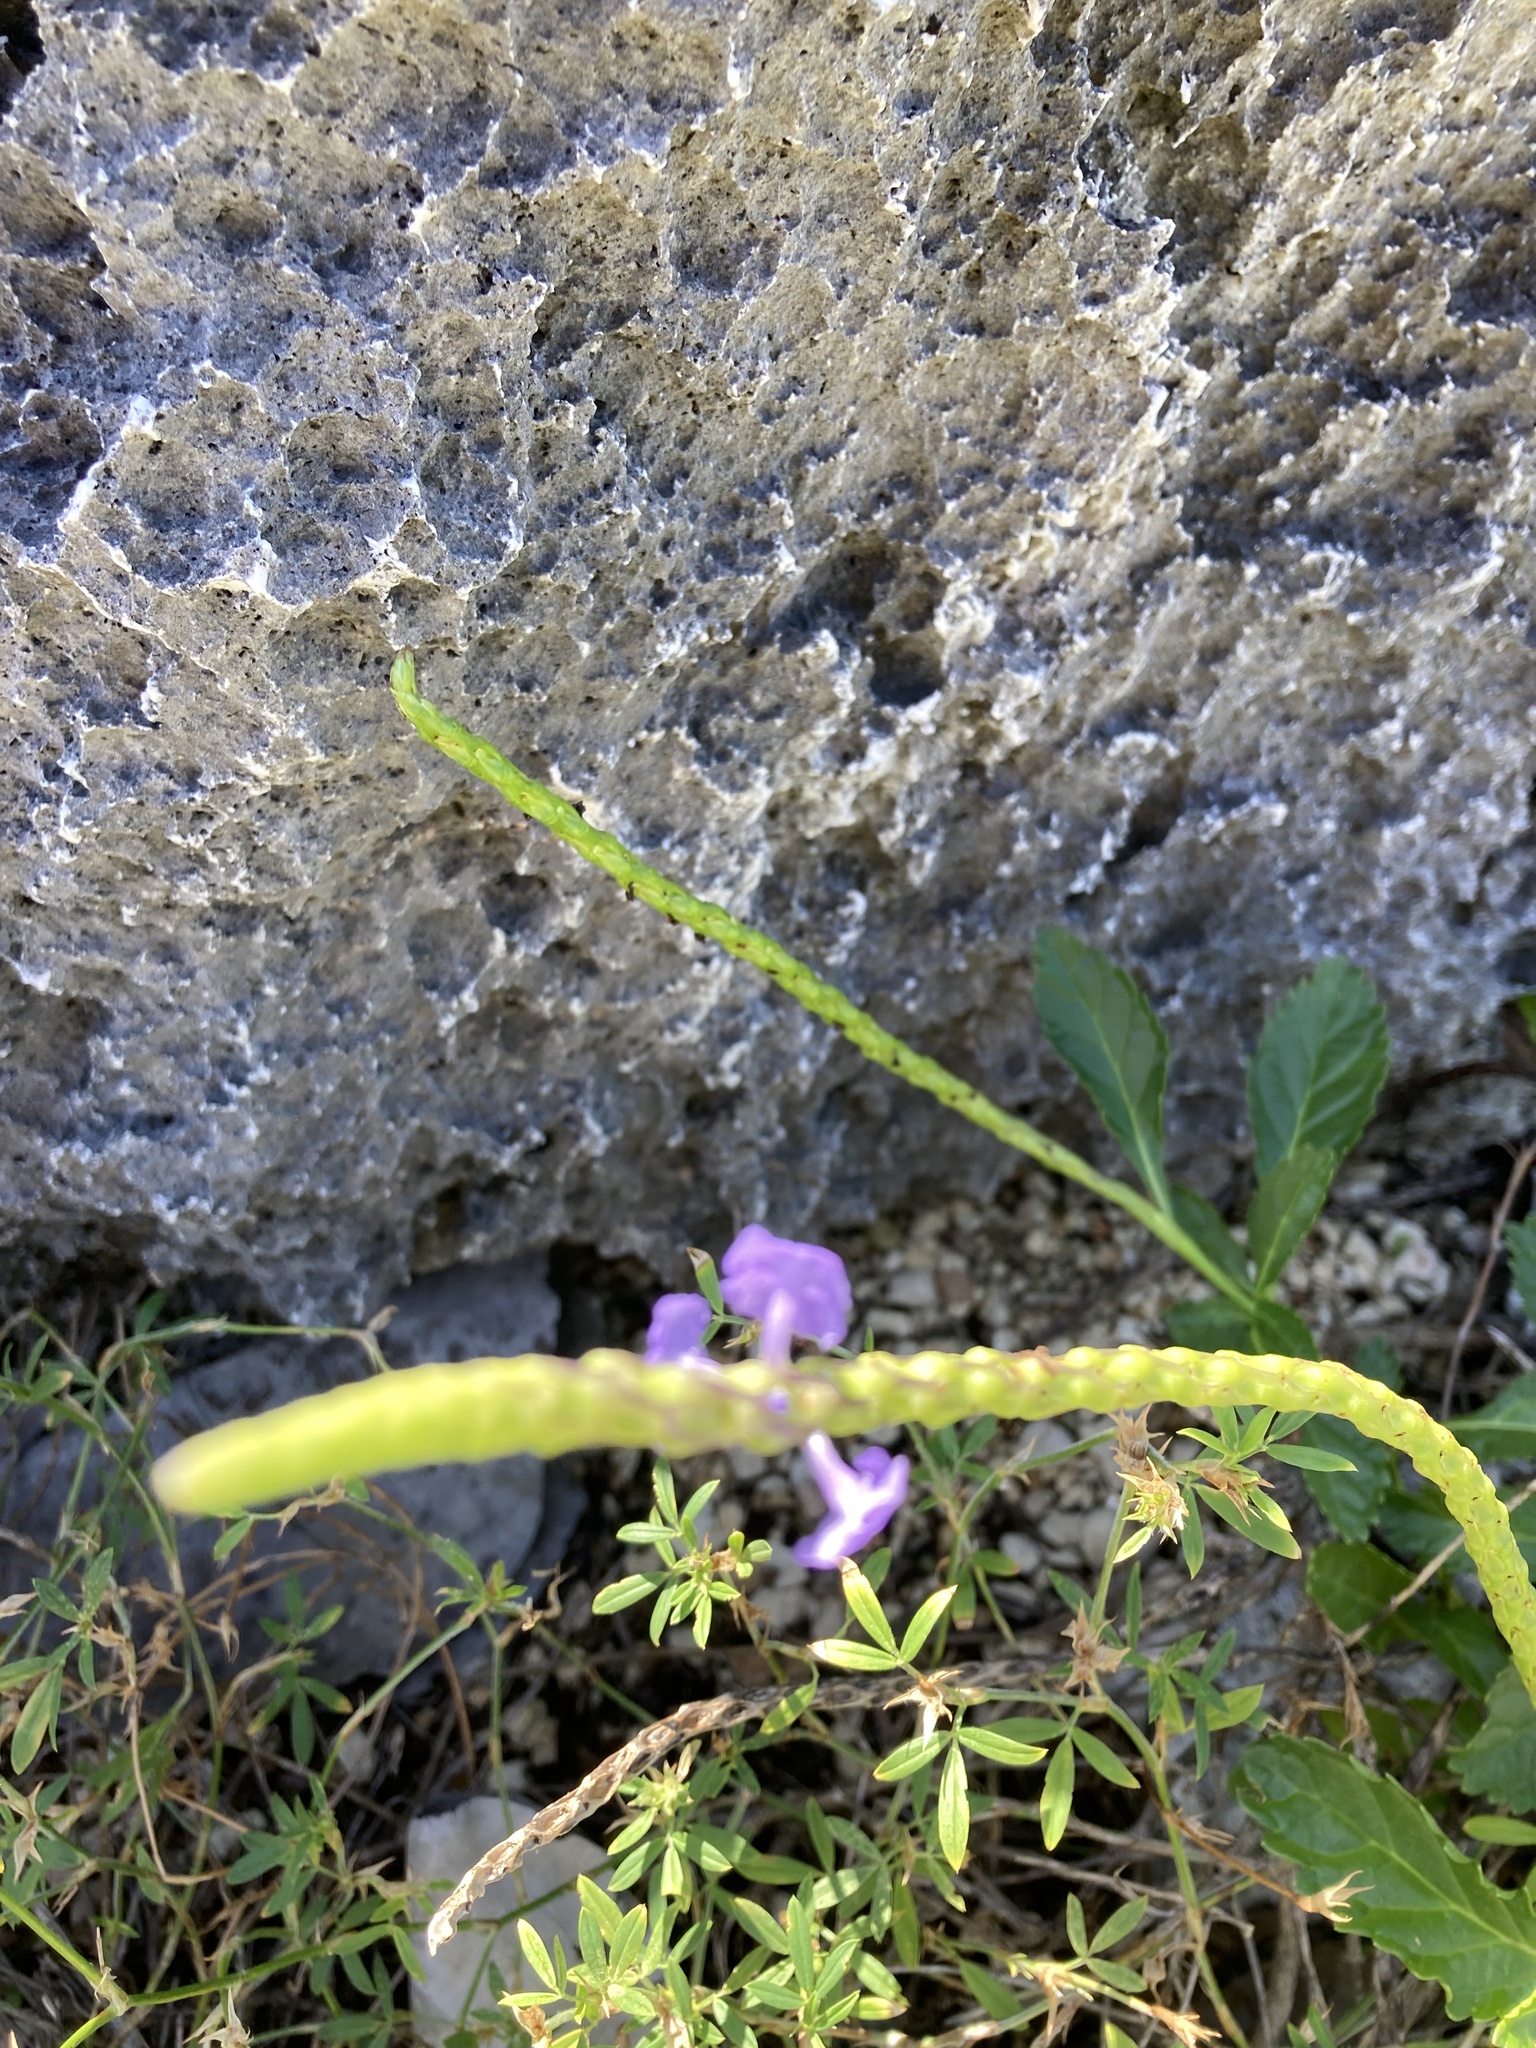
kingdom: Plantae
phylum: Tracheophyta
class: Magnoliopsida
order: Lamiales
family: Verbenaceae
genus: Stachytarpheta
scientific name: Stachytarpheta jamaicensis
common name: Light-blue snakeweed
